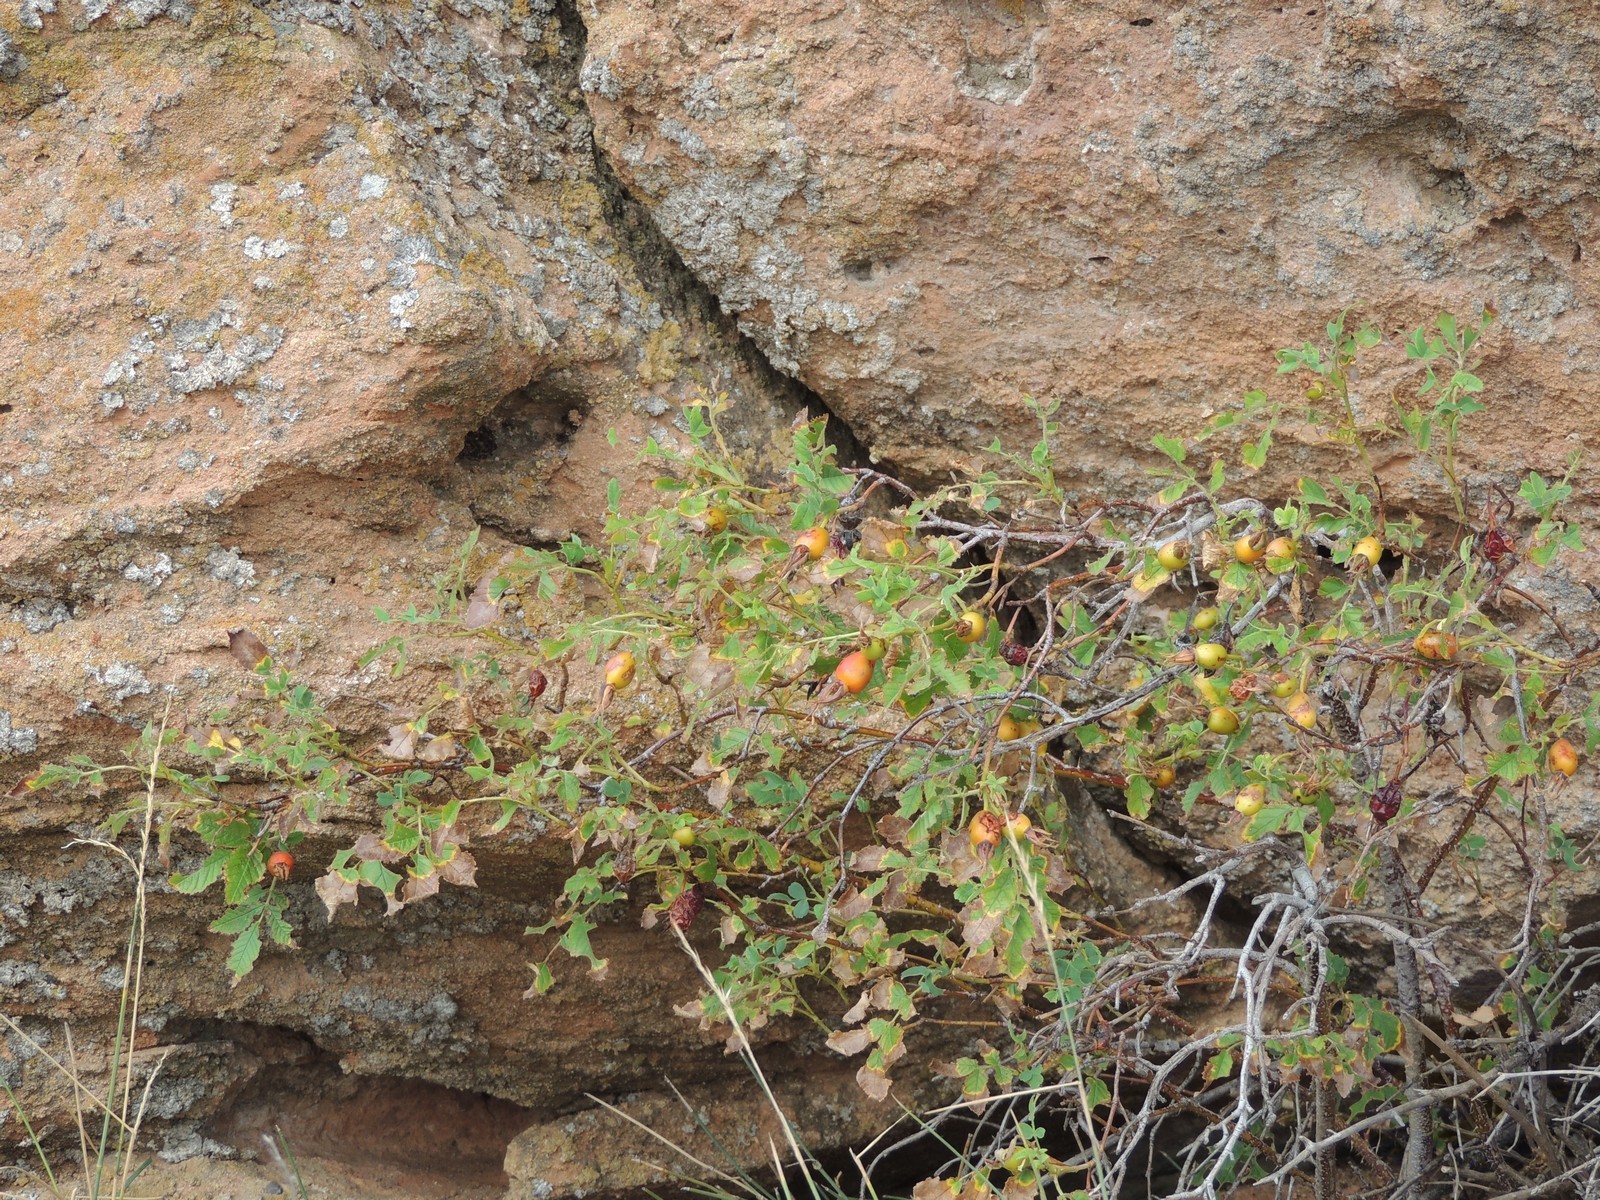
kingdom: Plantae
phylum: Tracheophyta
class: Magnoliopsida
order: Rosales
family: Rosaceae
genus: Rosa
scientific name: Rosa
